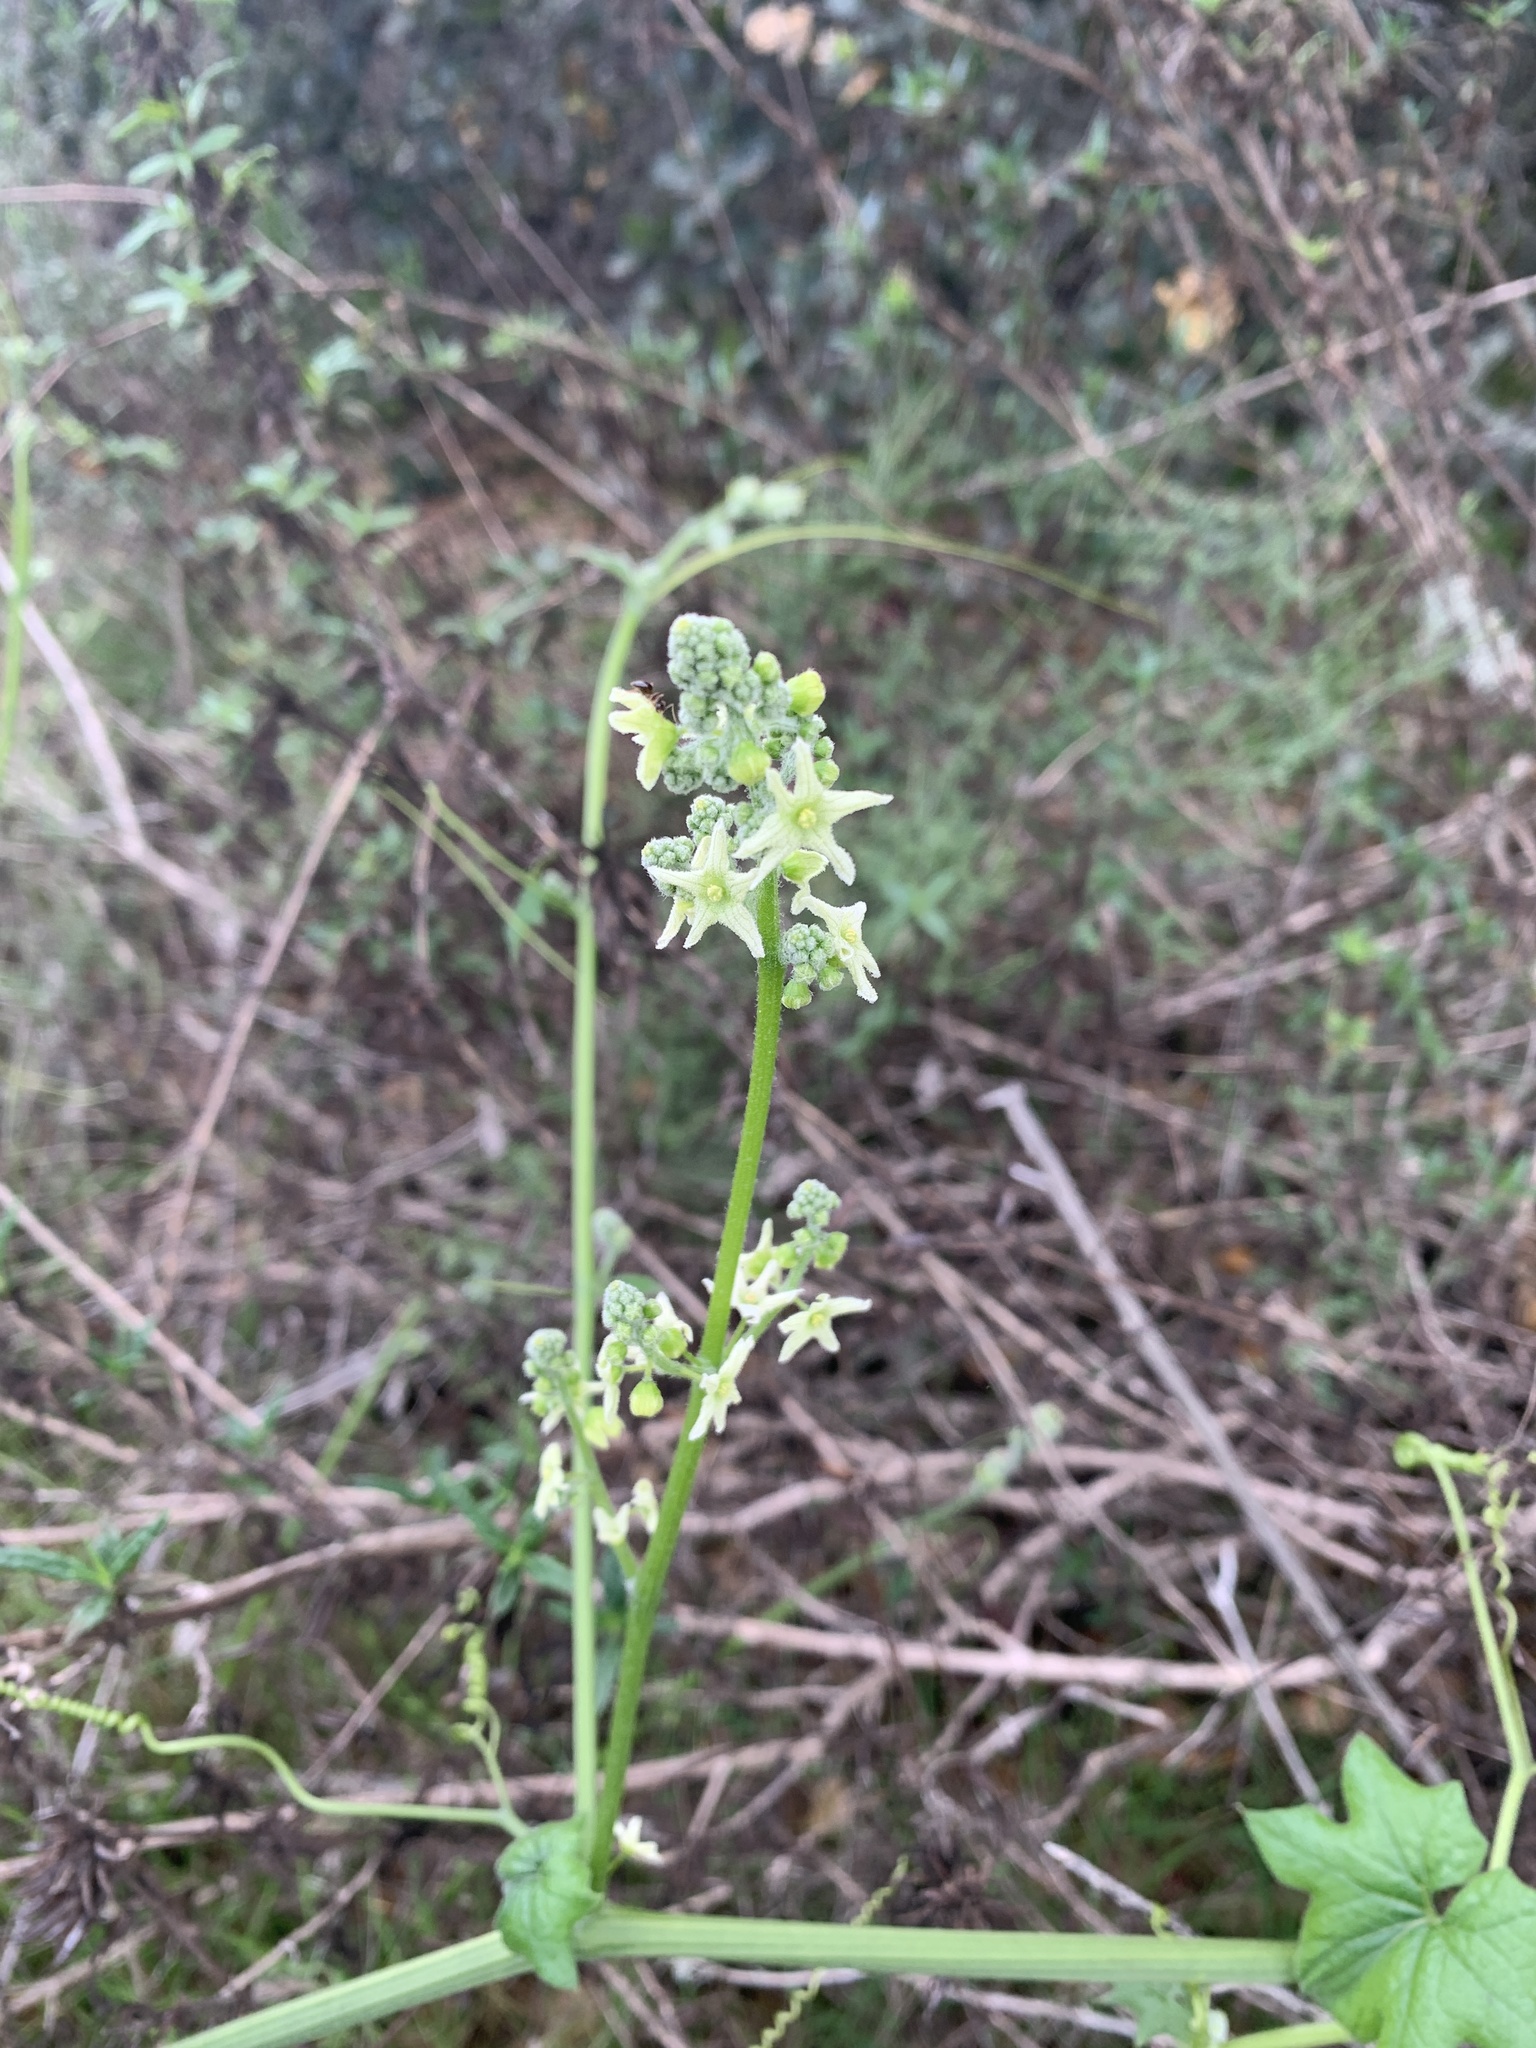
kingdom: Plantae
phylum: Tracheophyta
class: Magnoliopsida
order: Cucurbitales
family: Cucurbitaceae
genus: Marah
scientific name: Marah fabacea
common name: California manroot
